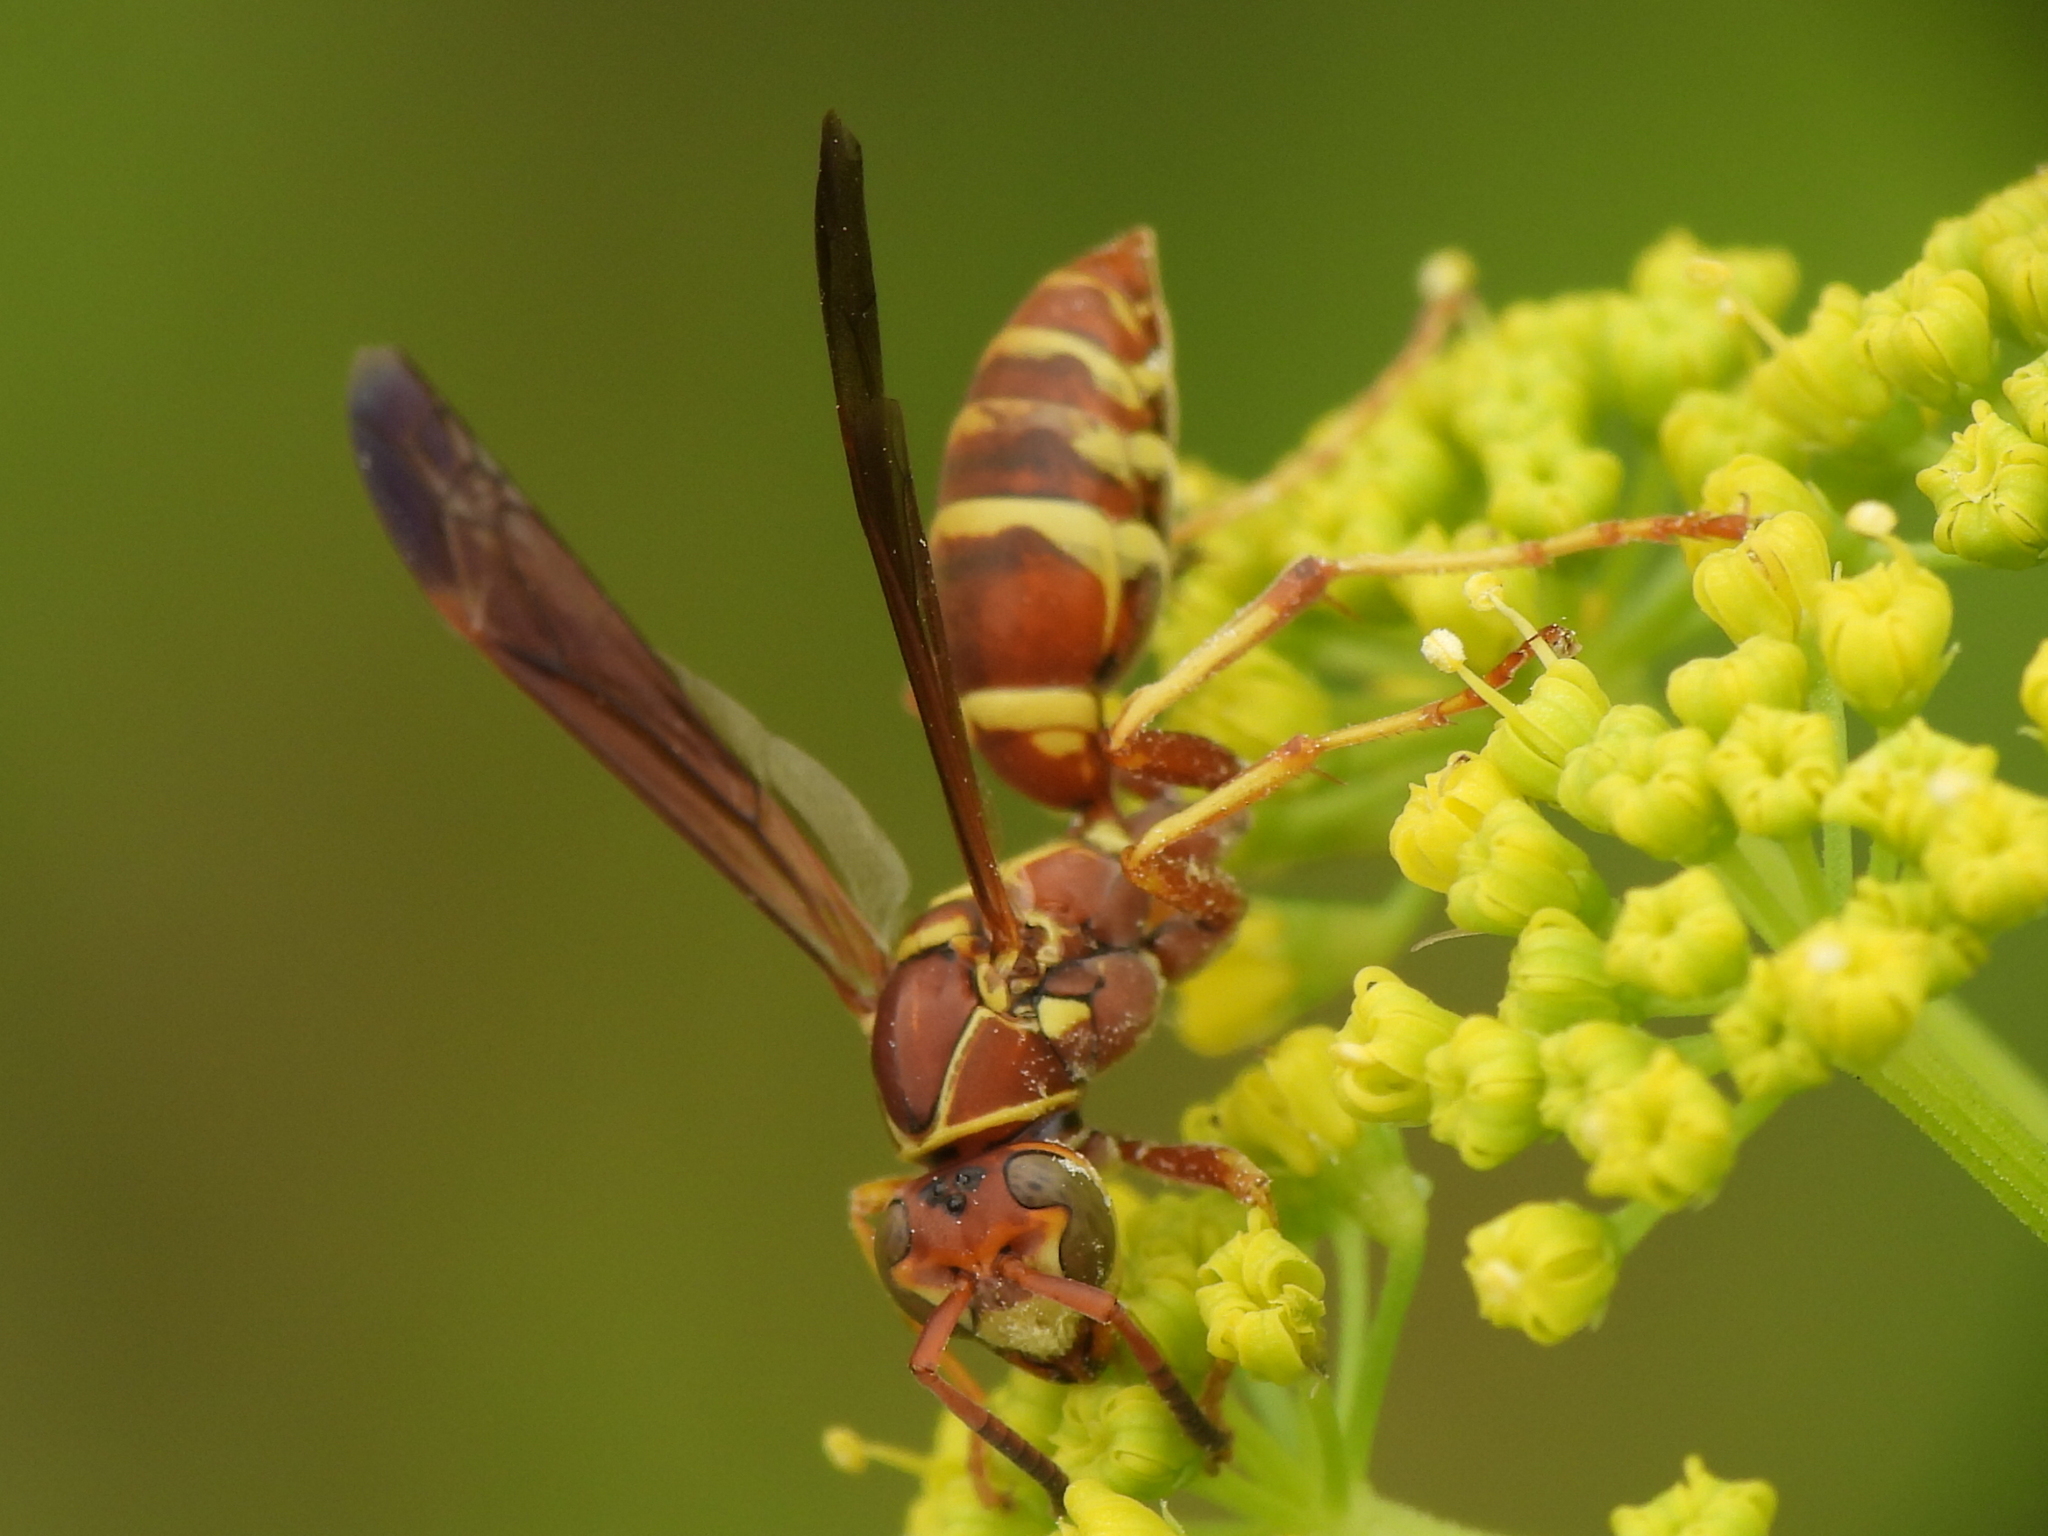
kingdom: Animalia
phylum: Arthropoda
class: Insecta
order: Hymenoptera
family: Eumenidae
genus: Polistes
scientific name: Polistes dorsalis
